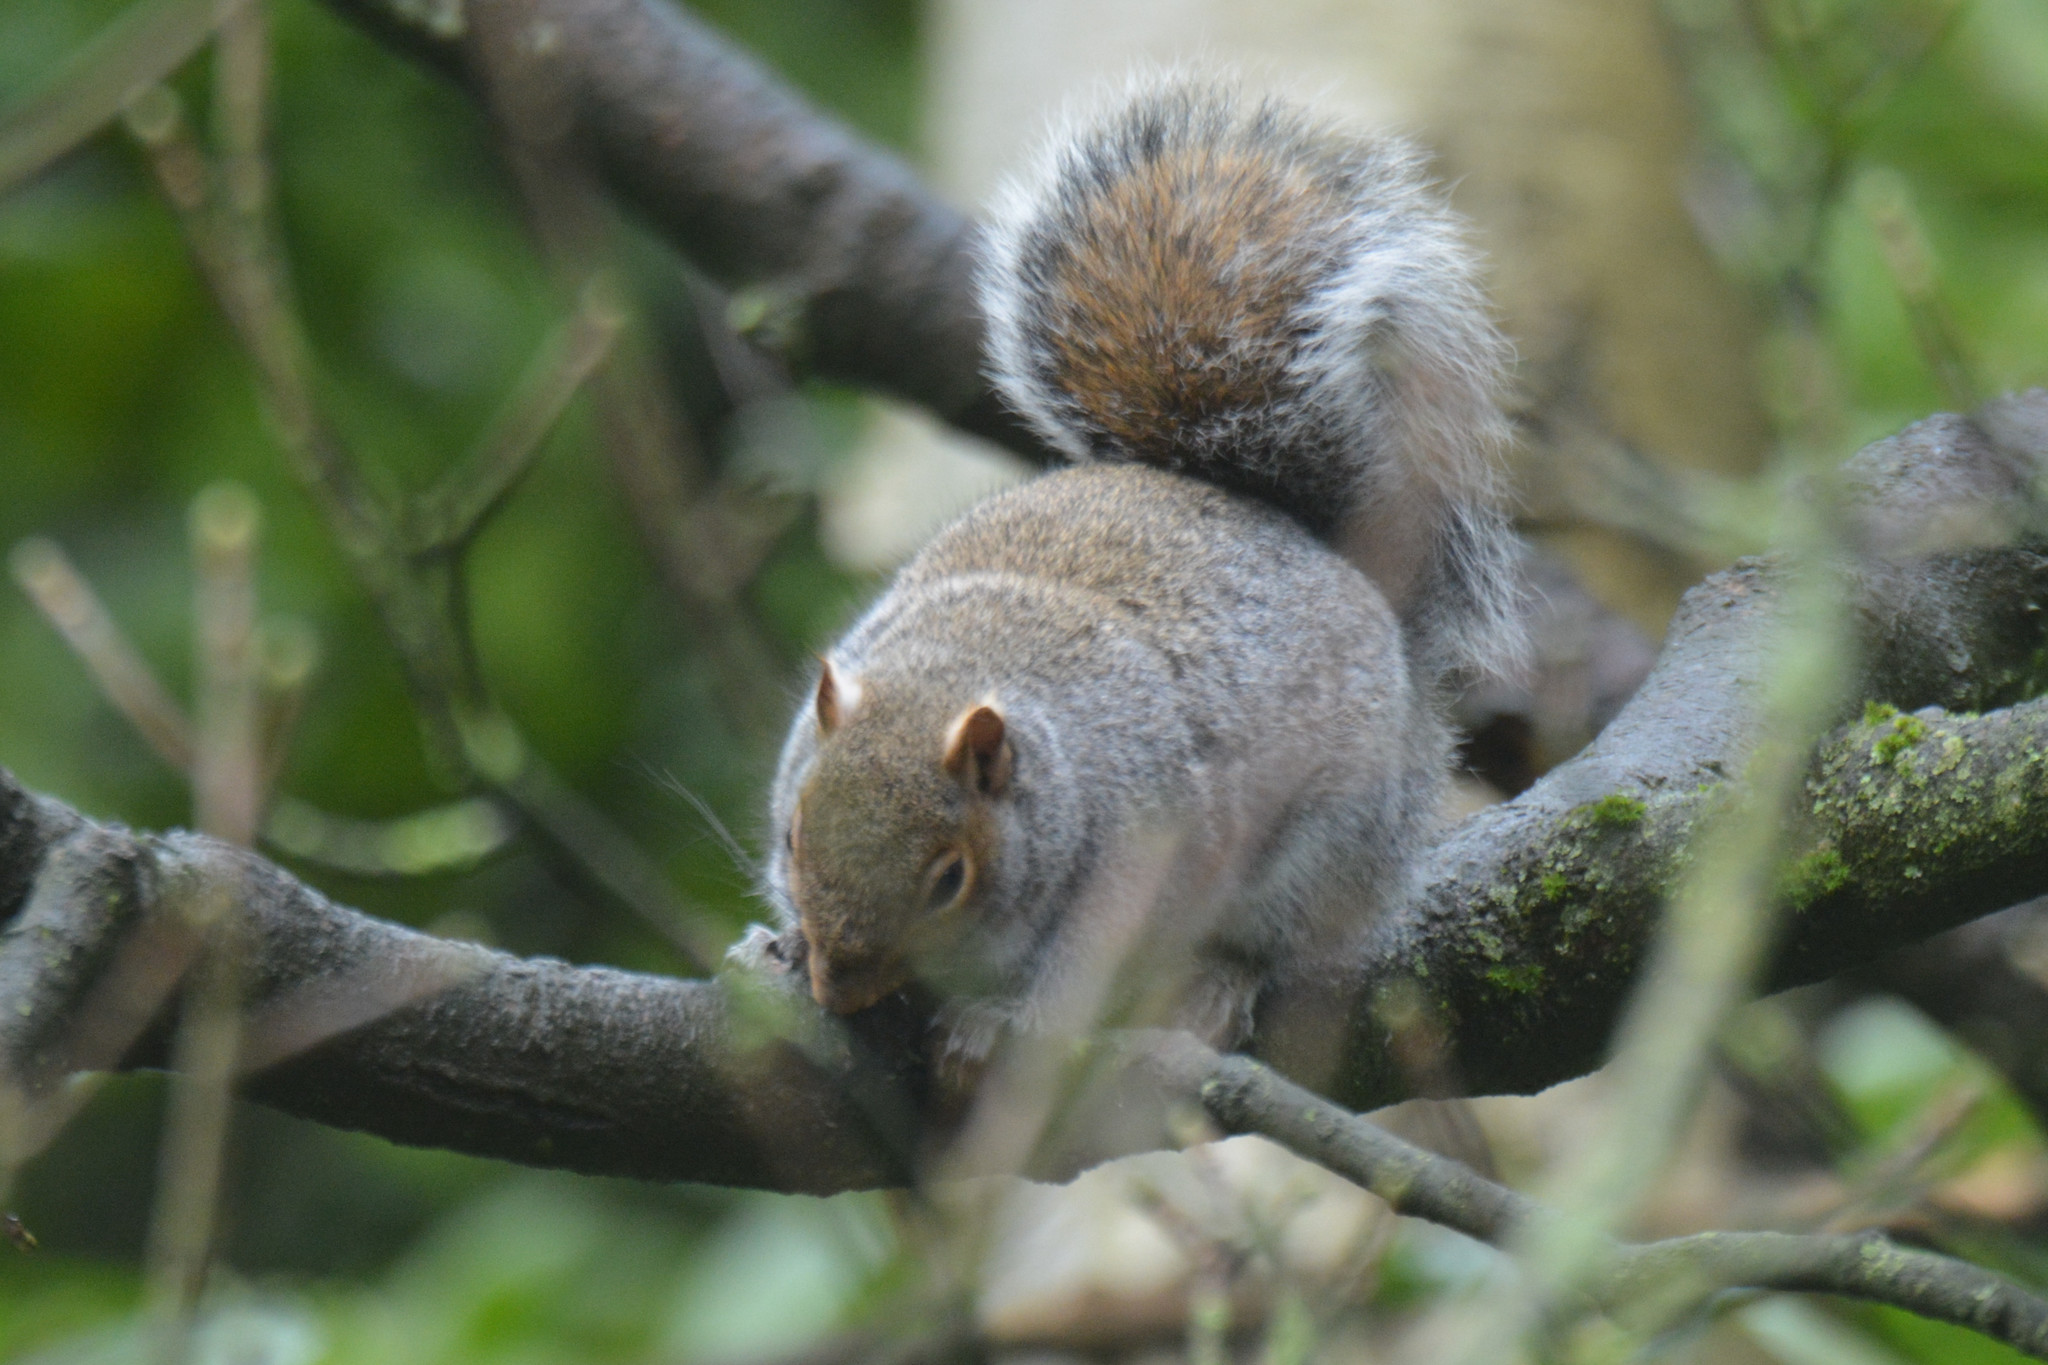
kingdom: Animalia
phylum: Chordata
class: Mammalia
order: Rodentia
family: Sciuridae
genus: Sciurus
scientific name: Sciurus carolinensis
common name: Eastern gray squirrel
